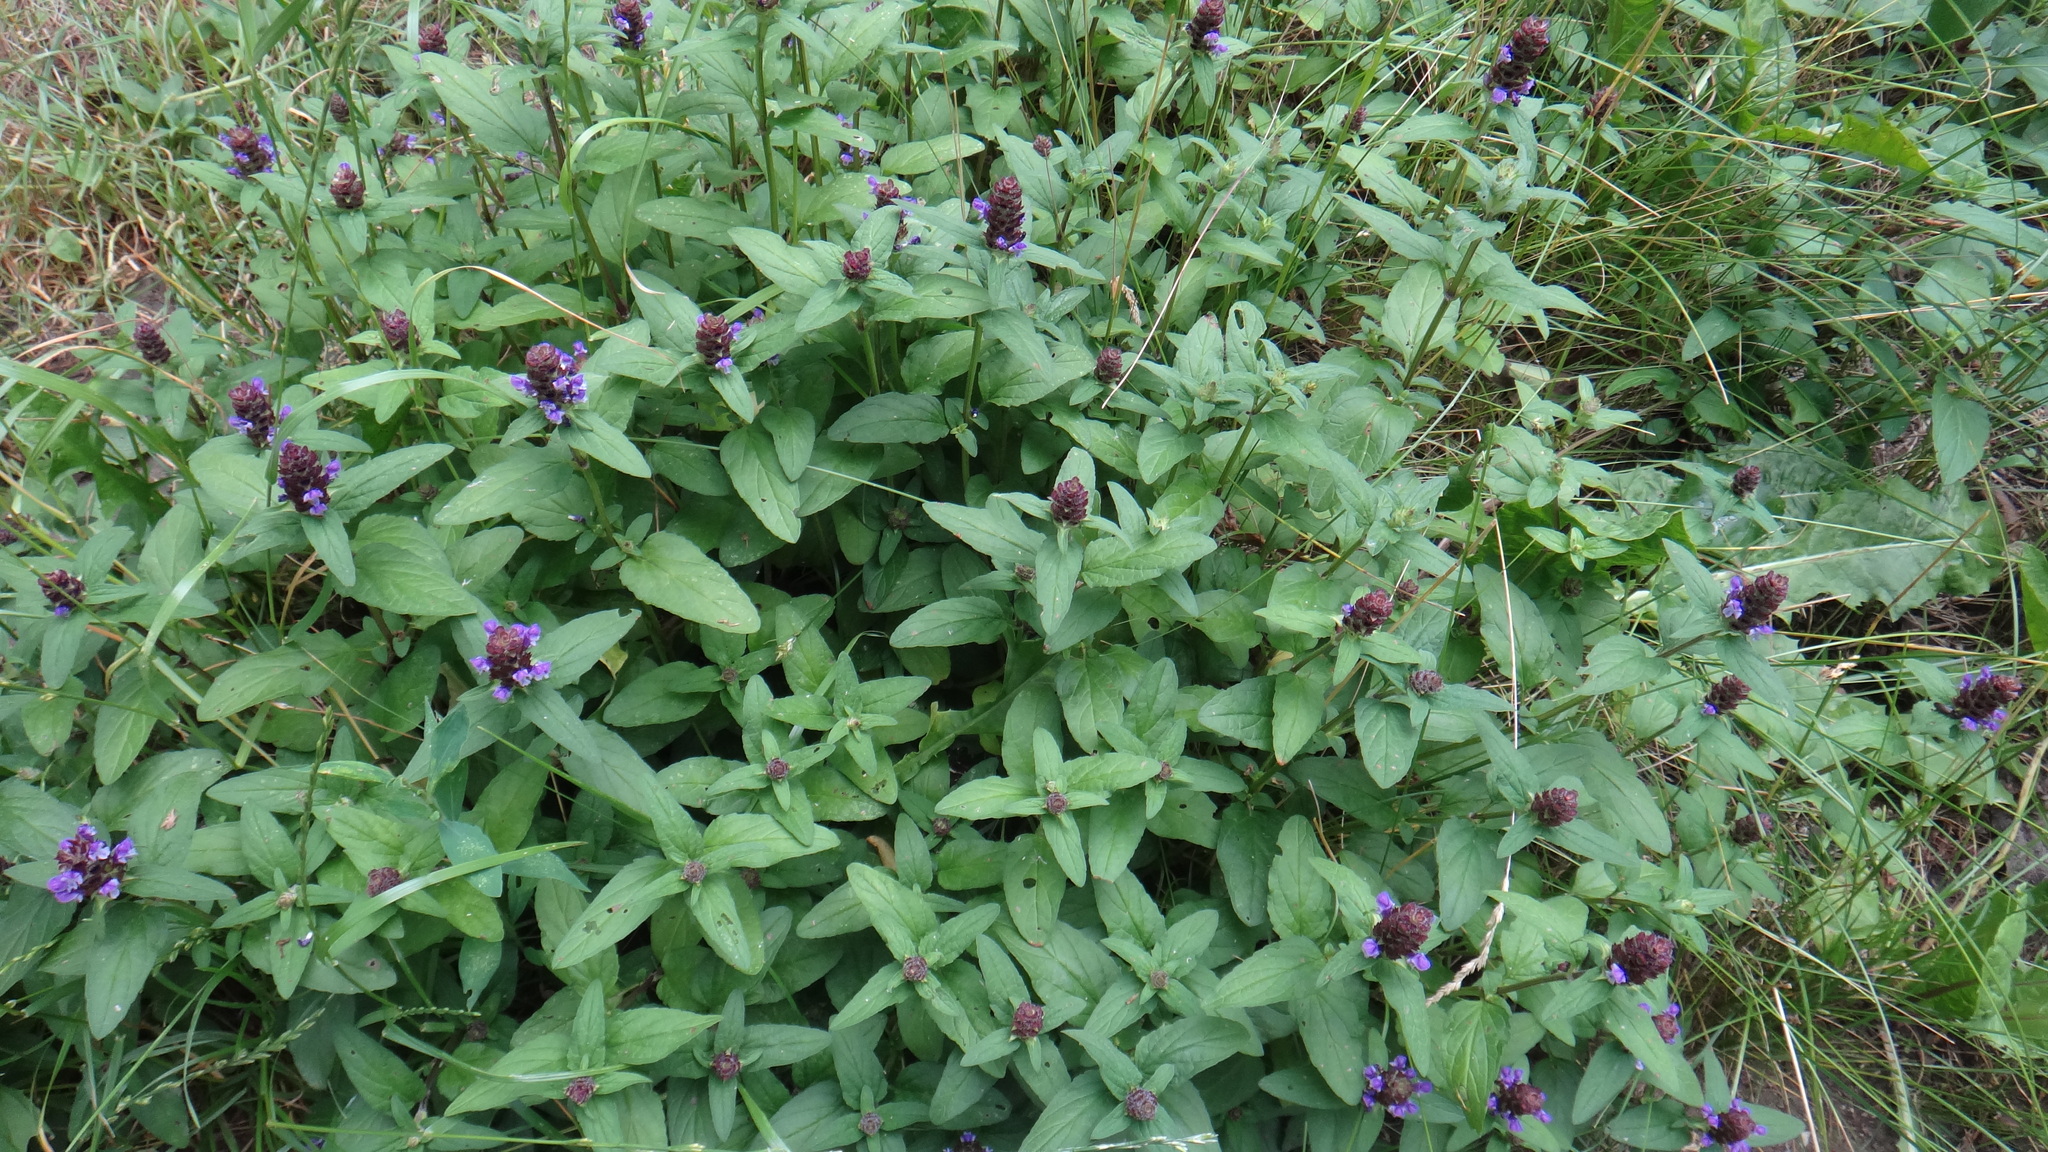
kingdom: Plantae
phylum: Tracheophyta
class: Magnoliopsida
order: Lamiales
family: Lamiaceae
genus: Prunella
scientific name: Prunella vulgaris
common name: Heal-all
